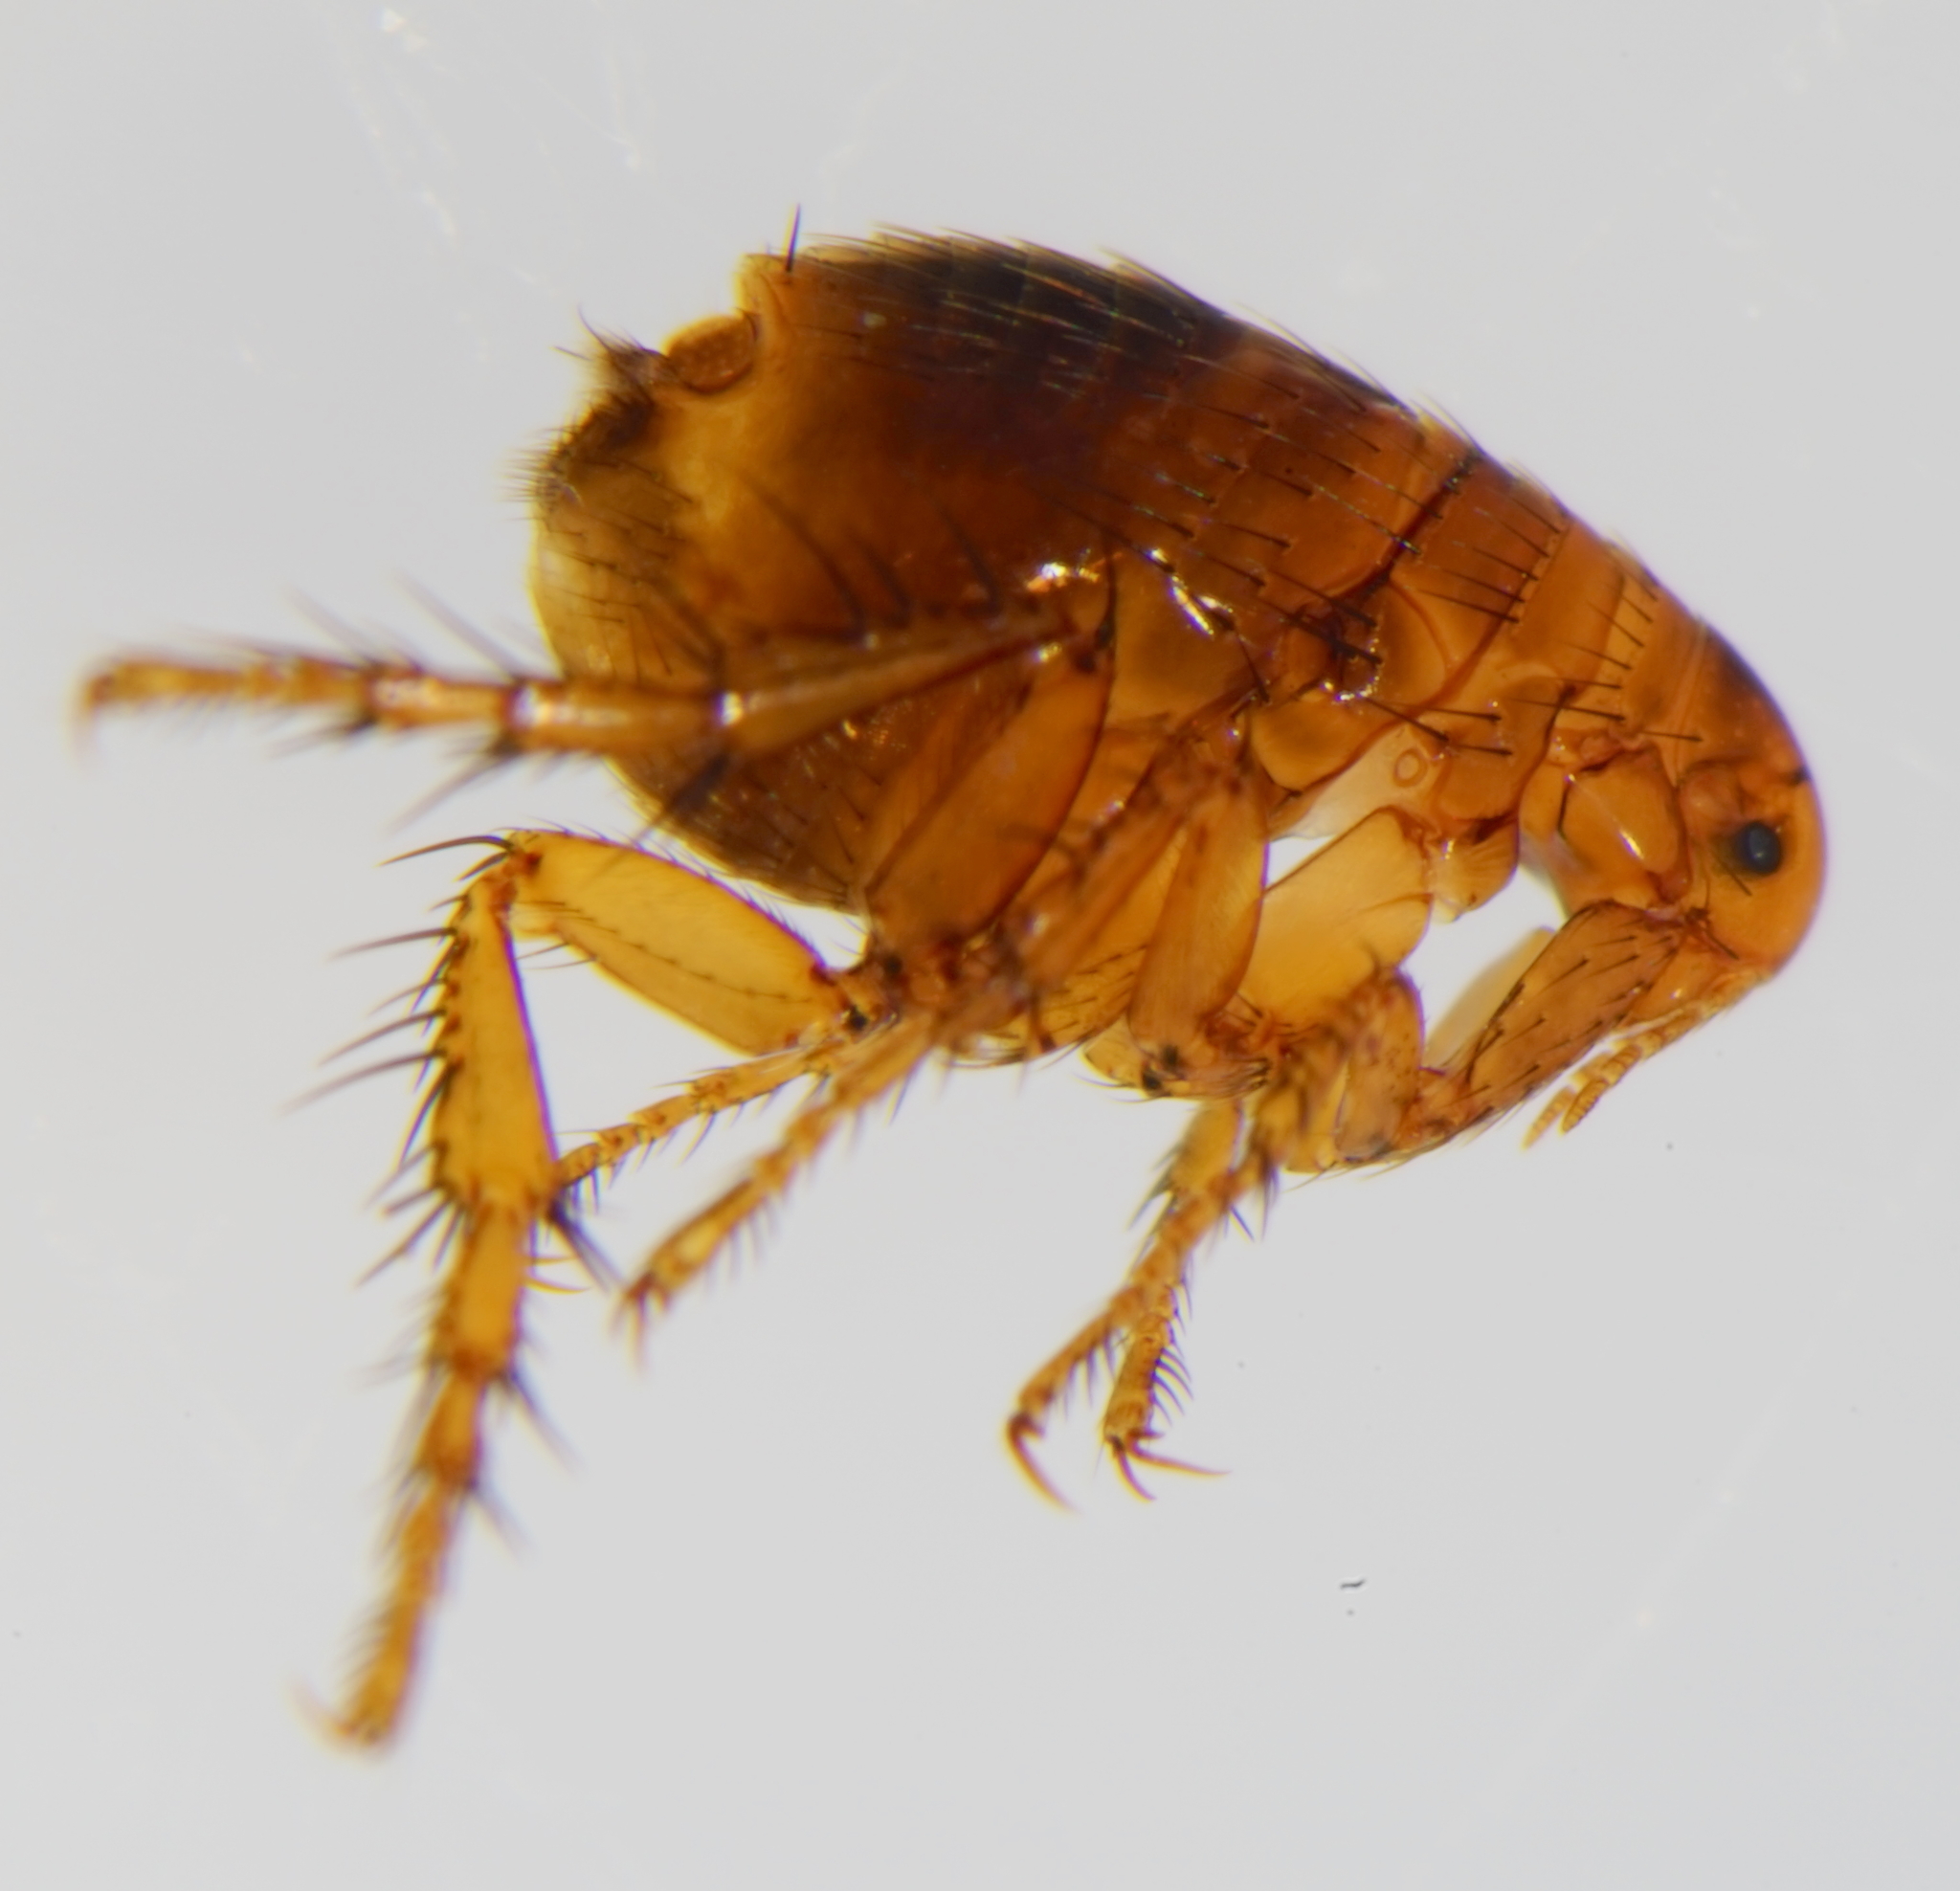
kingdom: Animalia
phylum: Arthropoda
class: Insecta
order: Siphonaptera
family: Pulicidae
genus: Pulex
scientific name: Pulex irritans
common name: Human flea
